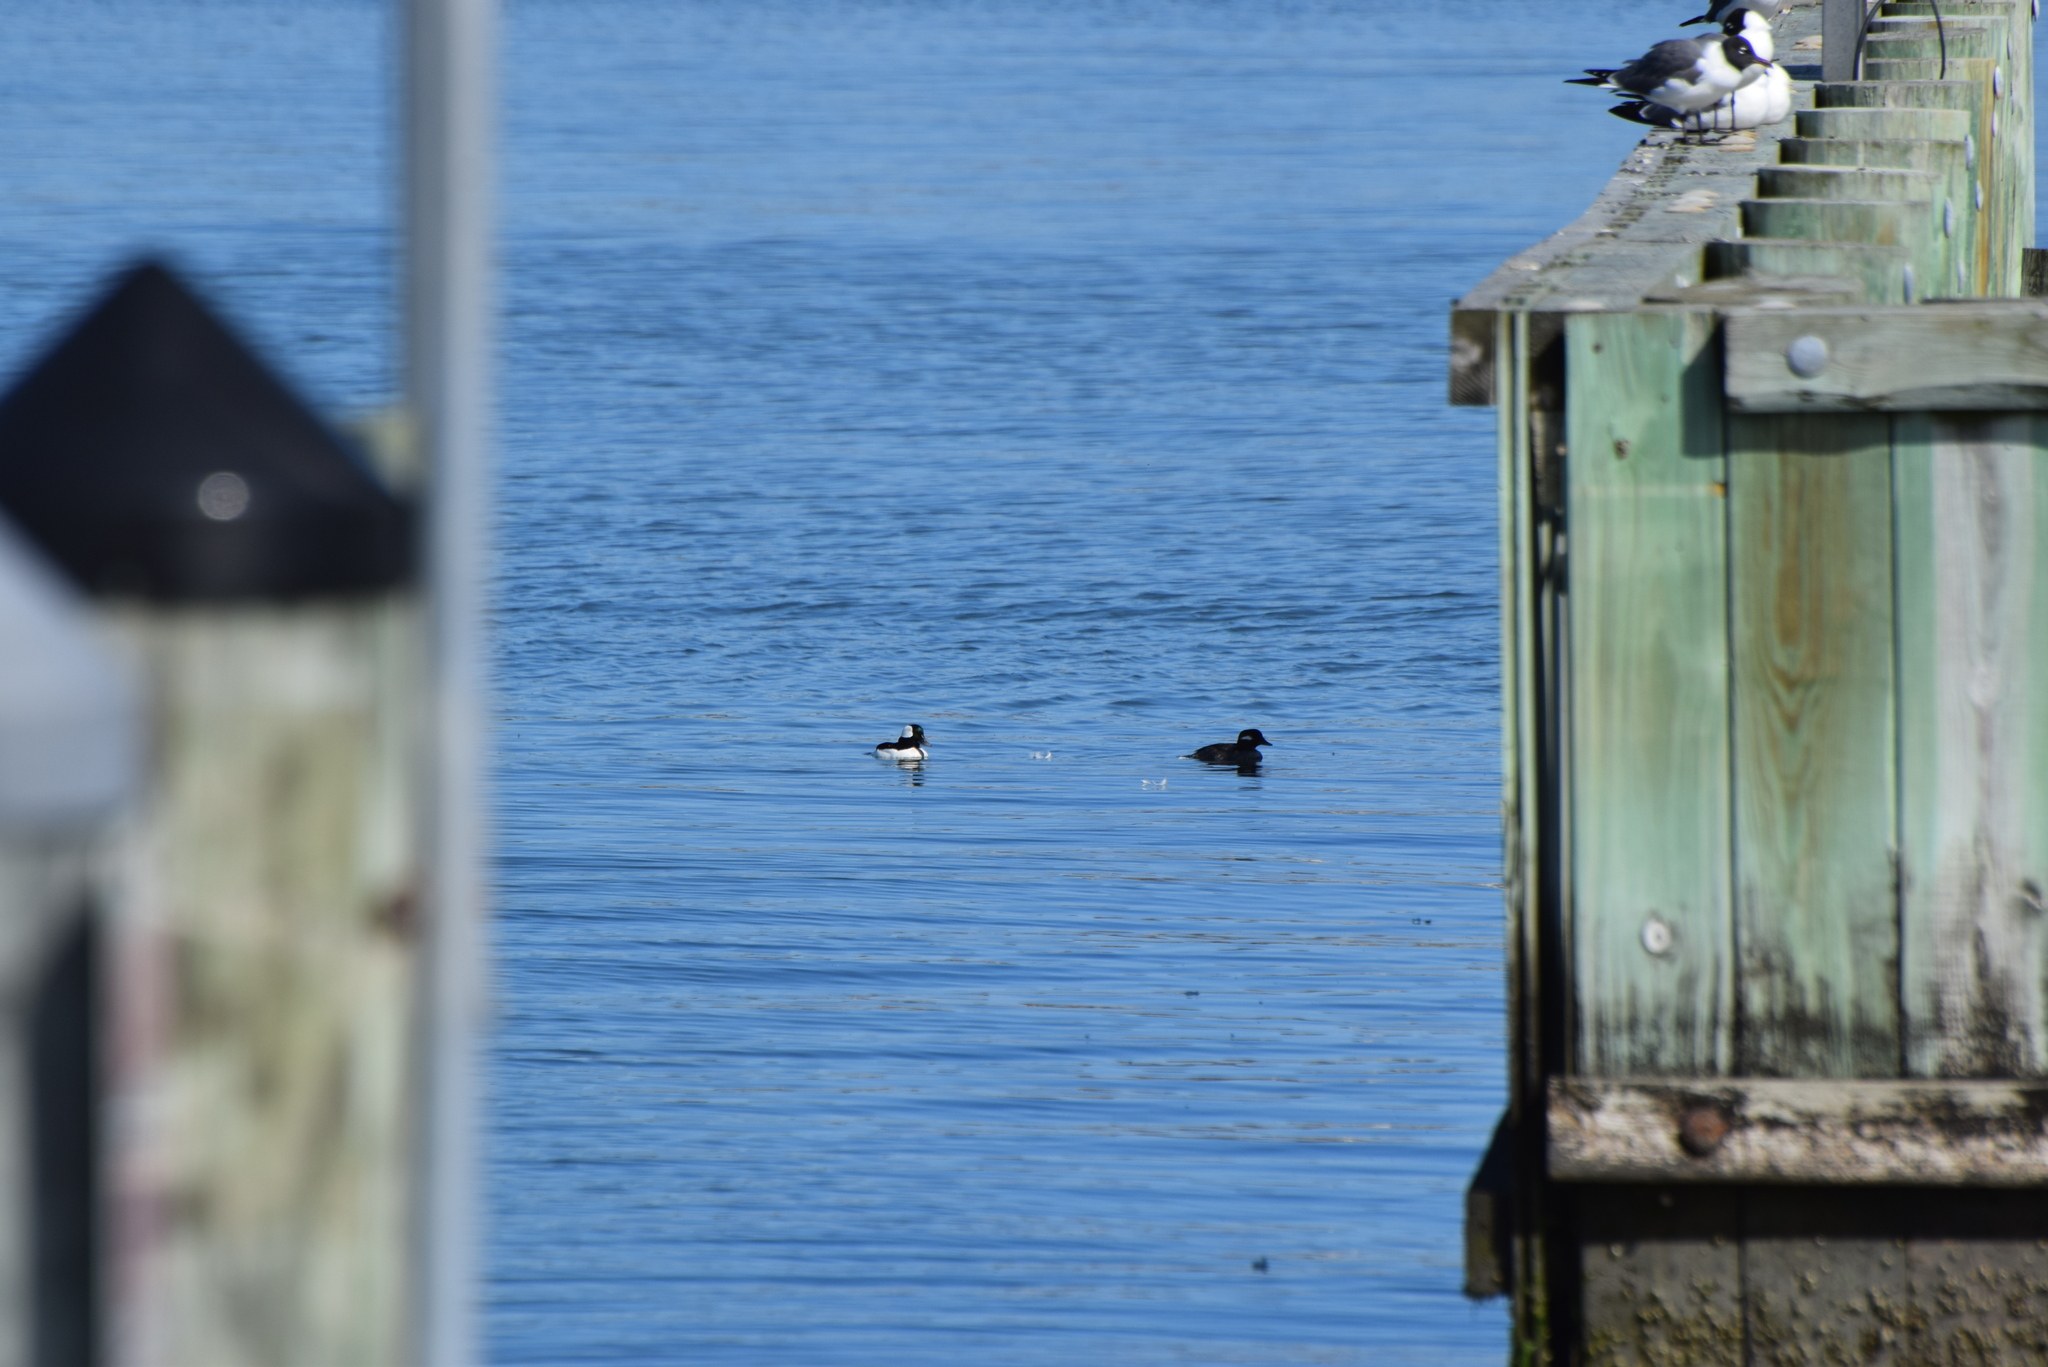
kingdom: Animalia
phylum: Chordata
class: Aves
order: Anseriformes
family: Anatidae
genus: Bucephala
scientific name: Bucephala albeola
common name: Bufflehead
